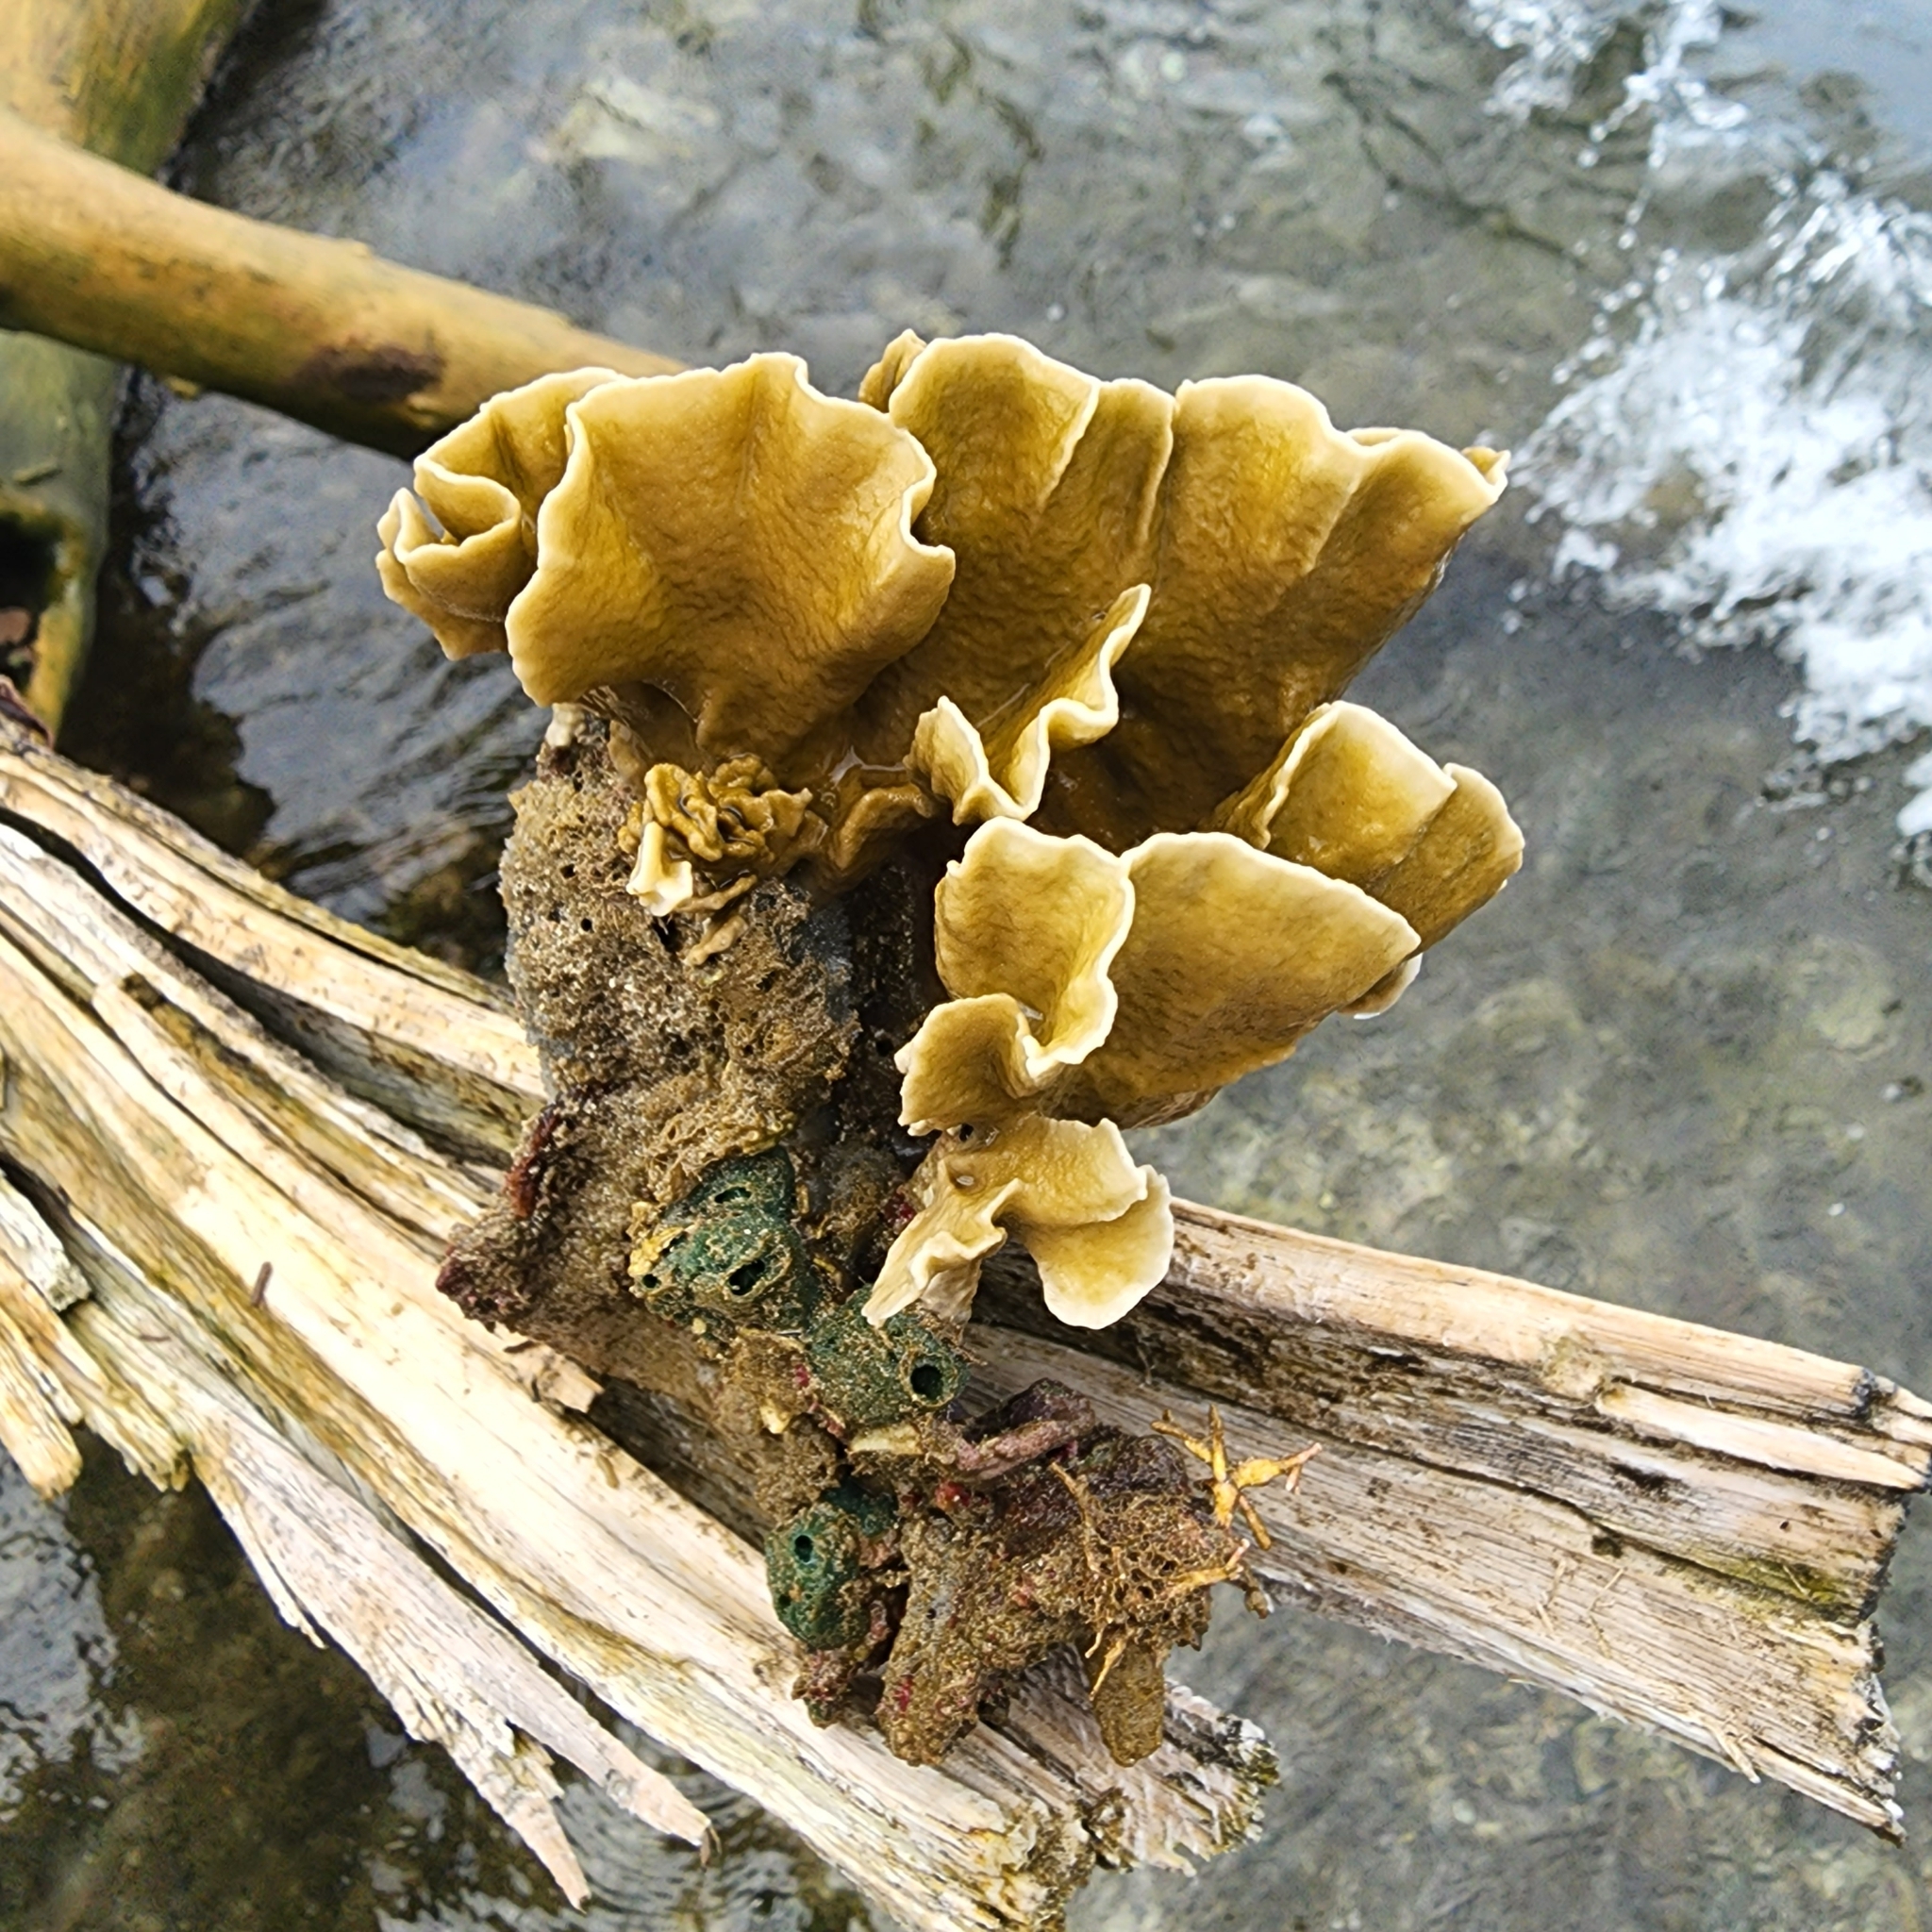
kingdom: Animalia
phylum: Cnidaria
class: Hydrozoa
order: Anthoathecata
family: Milleporidae
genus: Millepora
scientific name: Millepora complanata
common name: Bladed fire coral
